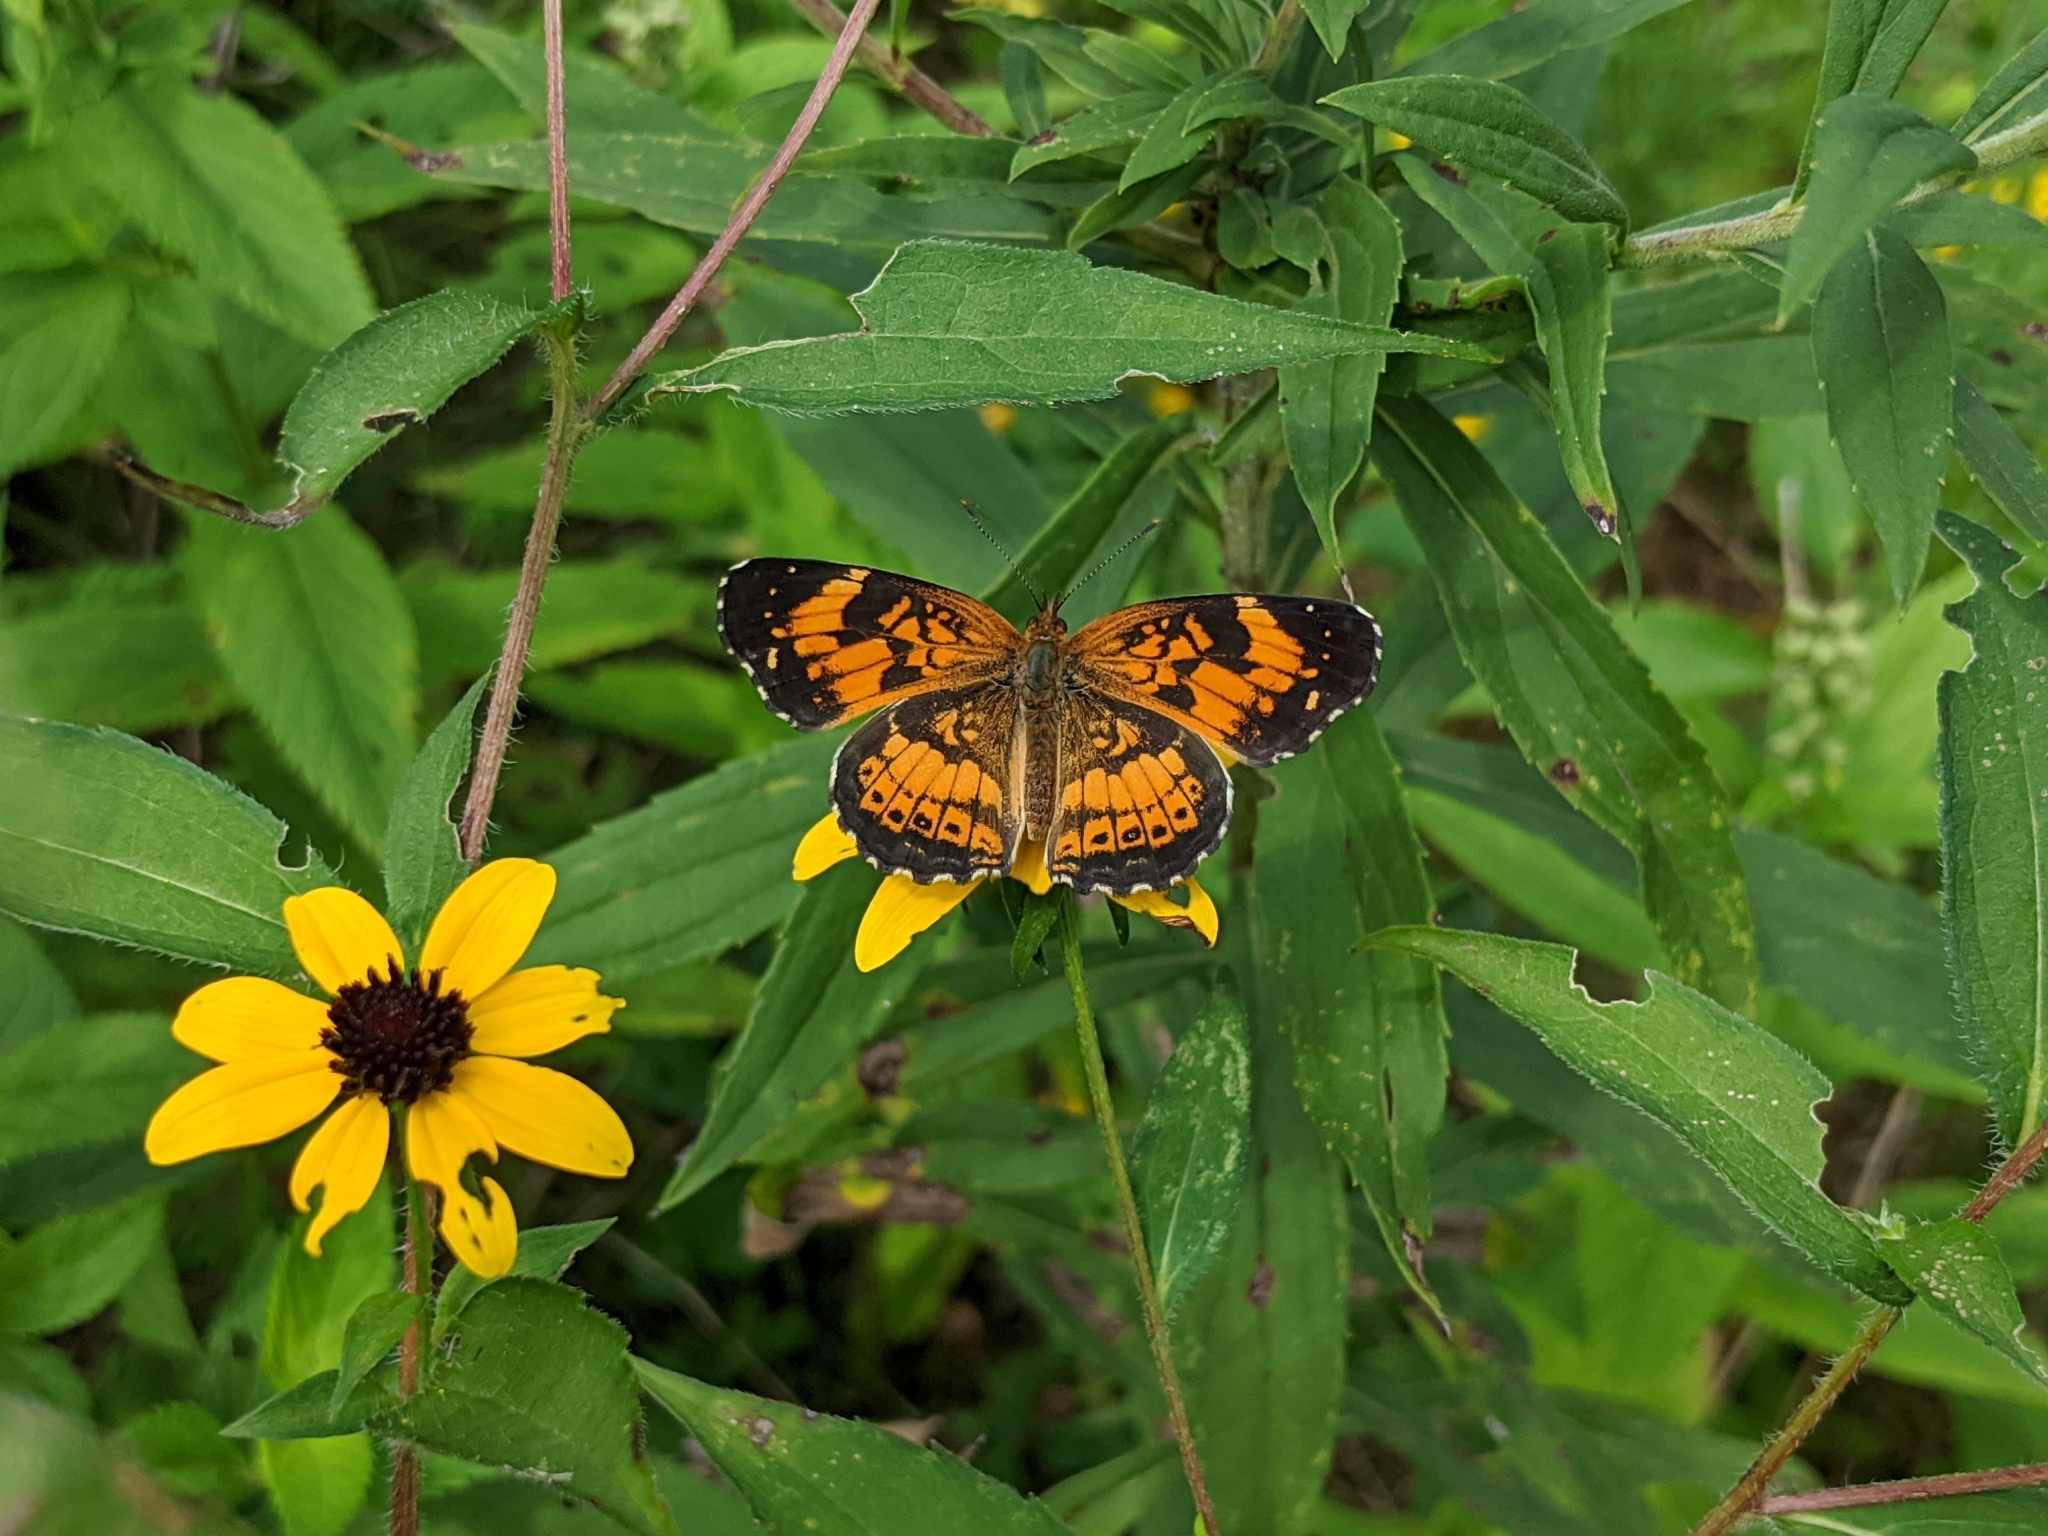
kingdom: Animalia
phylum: Arthropoda
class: Insecta
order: Lepidoptera
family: Nymphalidae
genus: Chlosyne
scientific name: Chlosyne nycteis
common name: Silvery checkerspot
